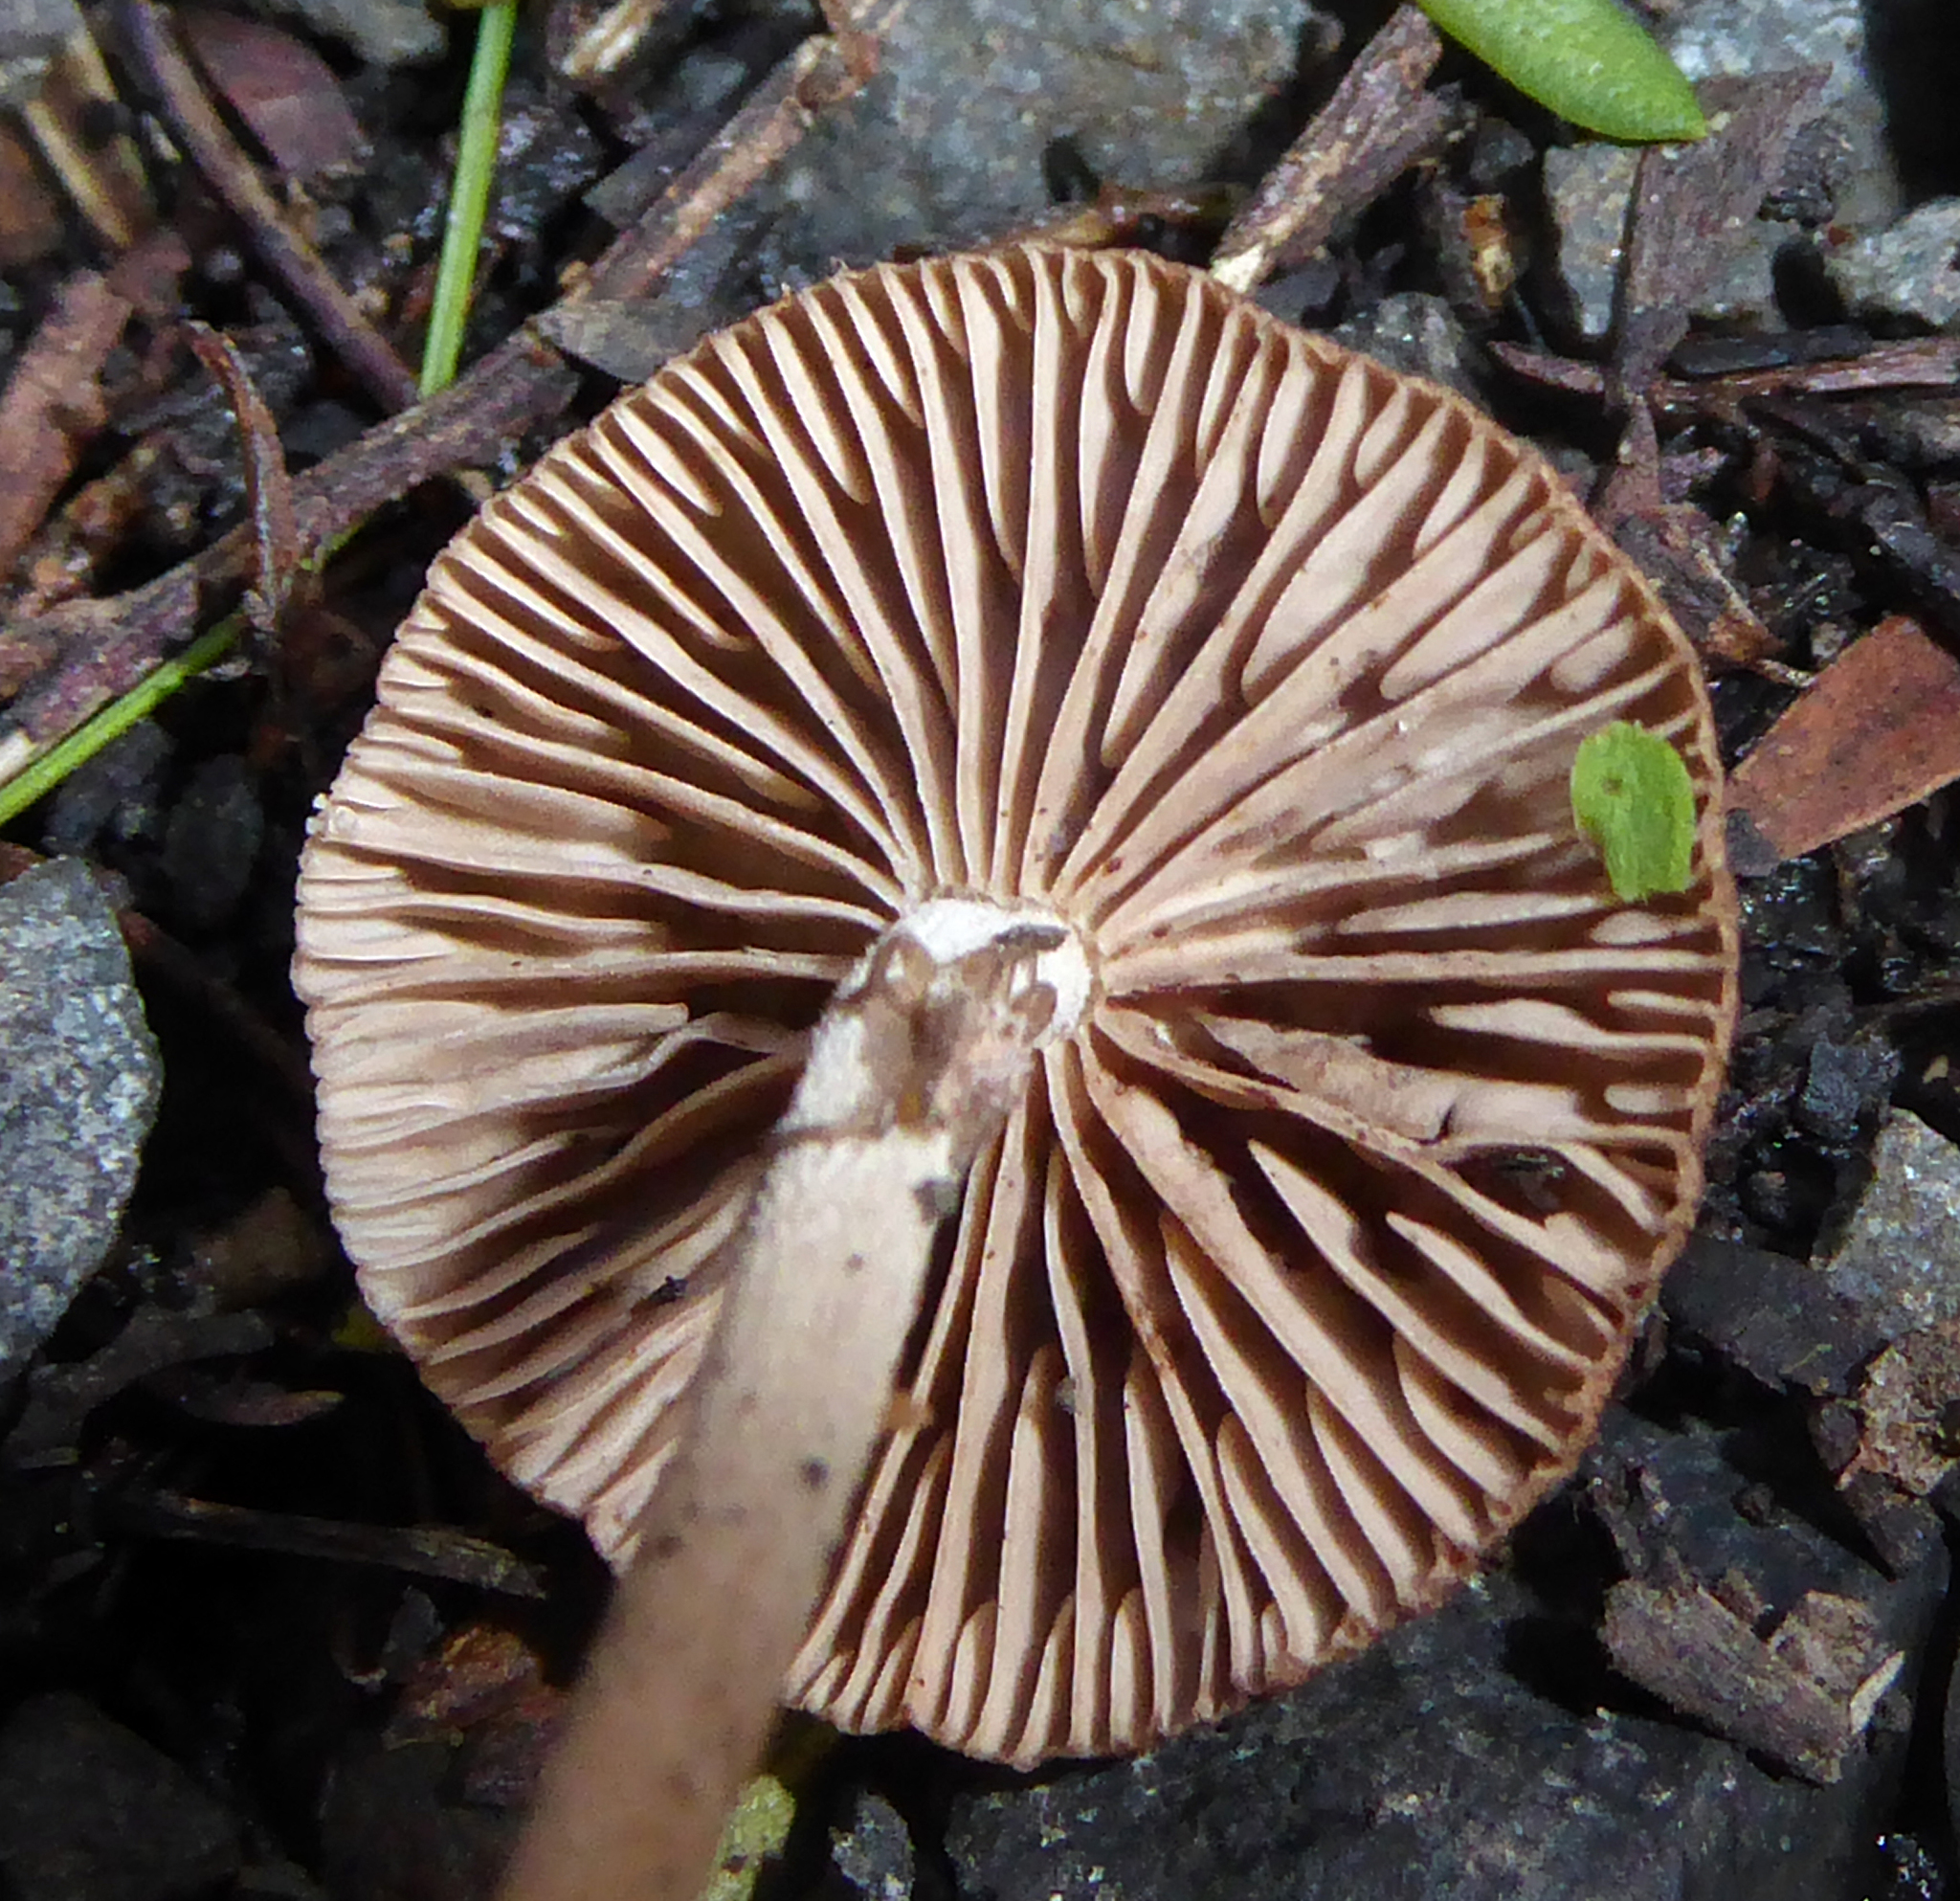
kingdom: Fungi
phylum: Basidiomycota
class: Agaricomycetes
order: Agaricales
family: Omphalotaceae
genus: Collybiopsis
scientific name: Collybiopsis villosipes
